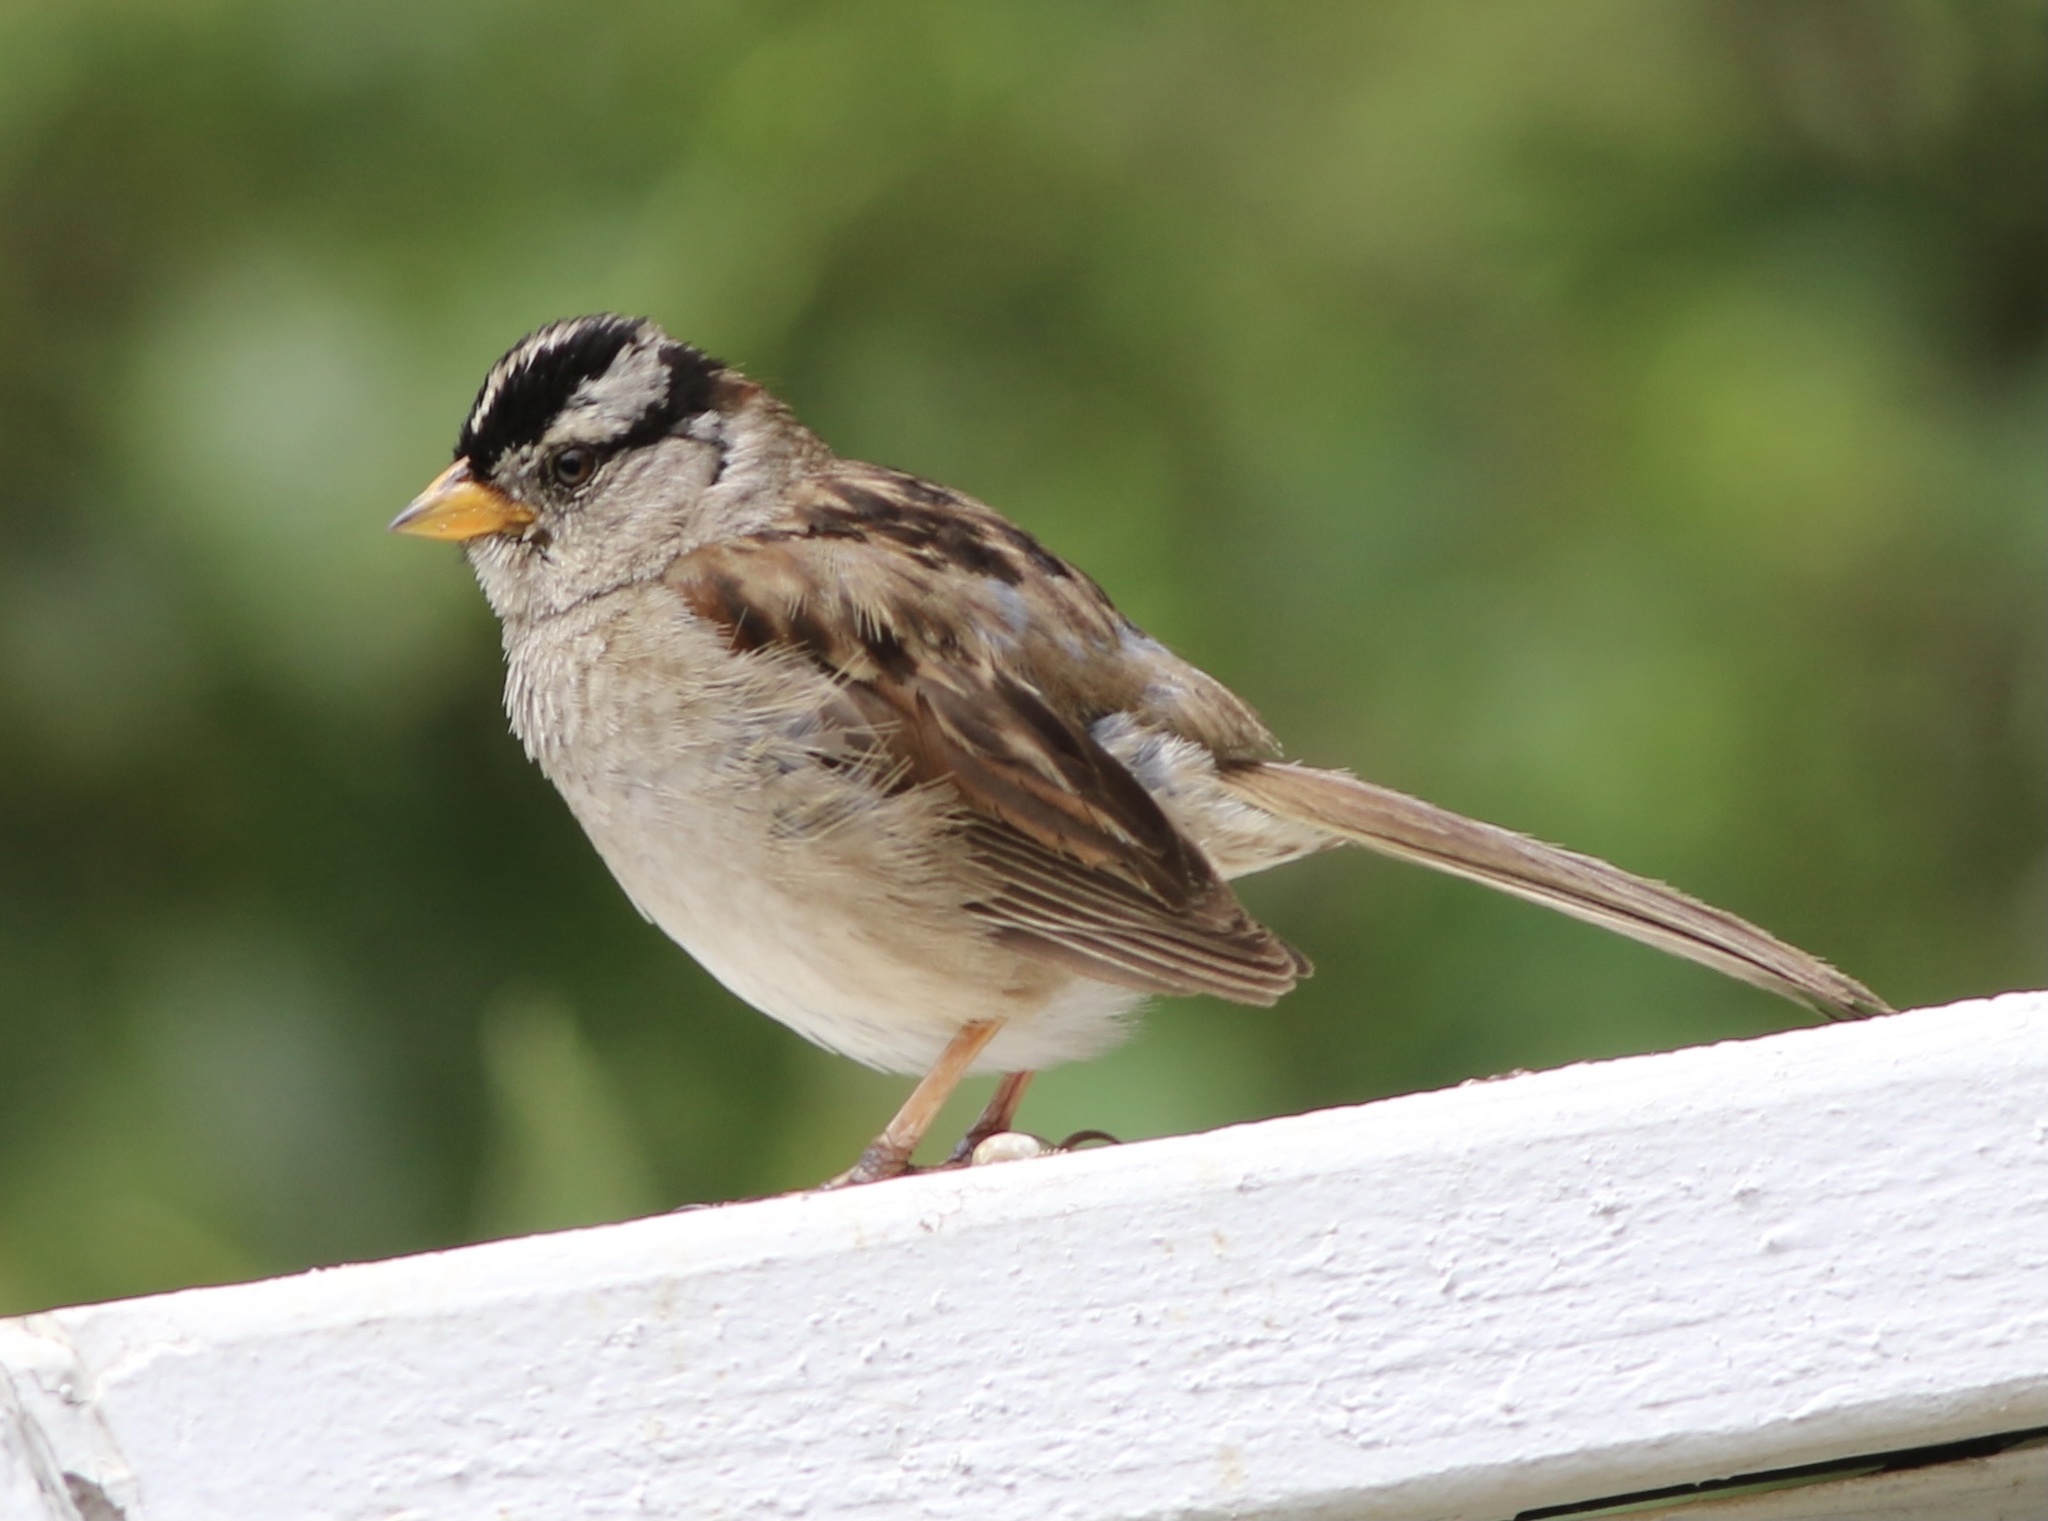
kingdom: Animalia
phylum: Chordata
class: Aves
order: Passeriformes
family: Passerellidae
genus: Zonotrichia
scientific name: Zonotrichia leucophrys
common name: White-crowned sparrow
